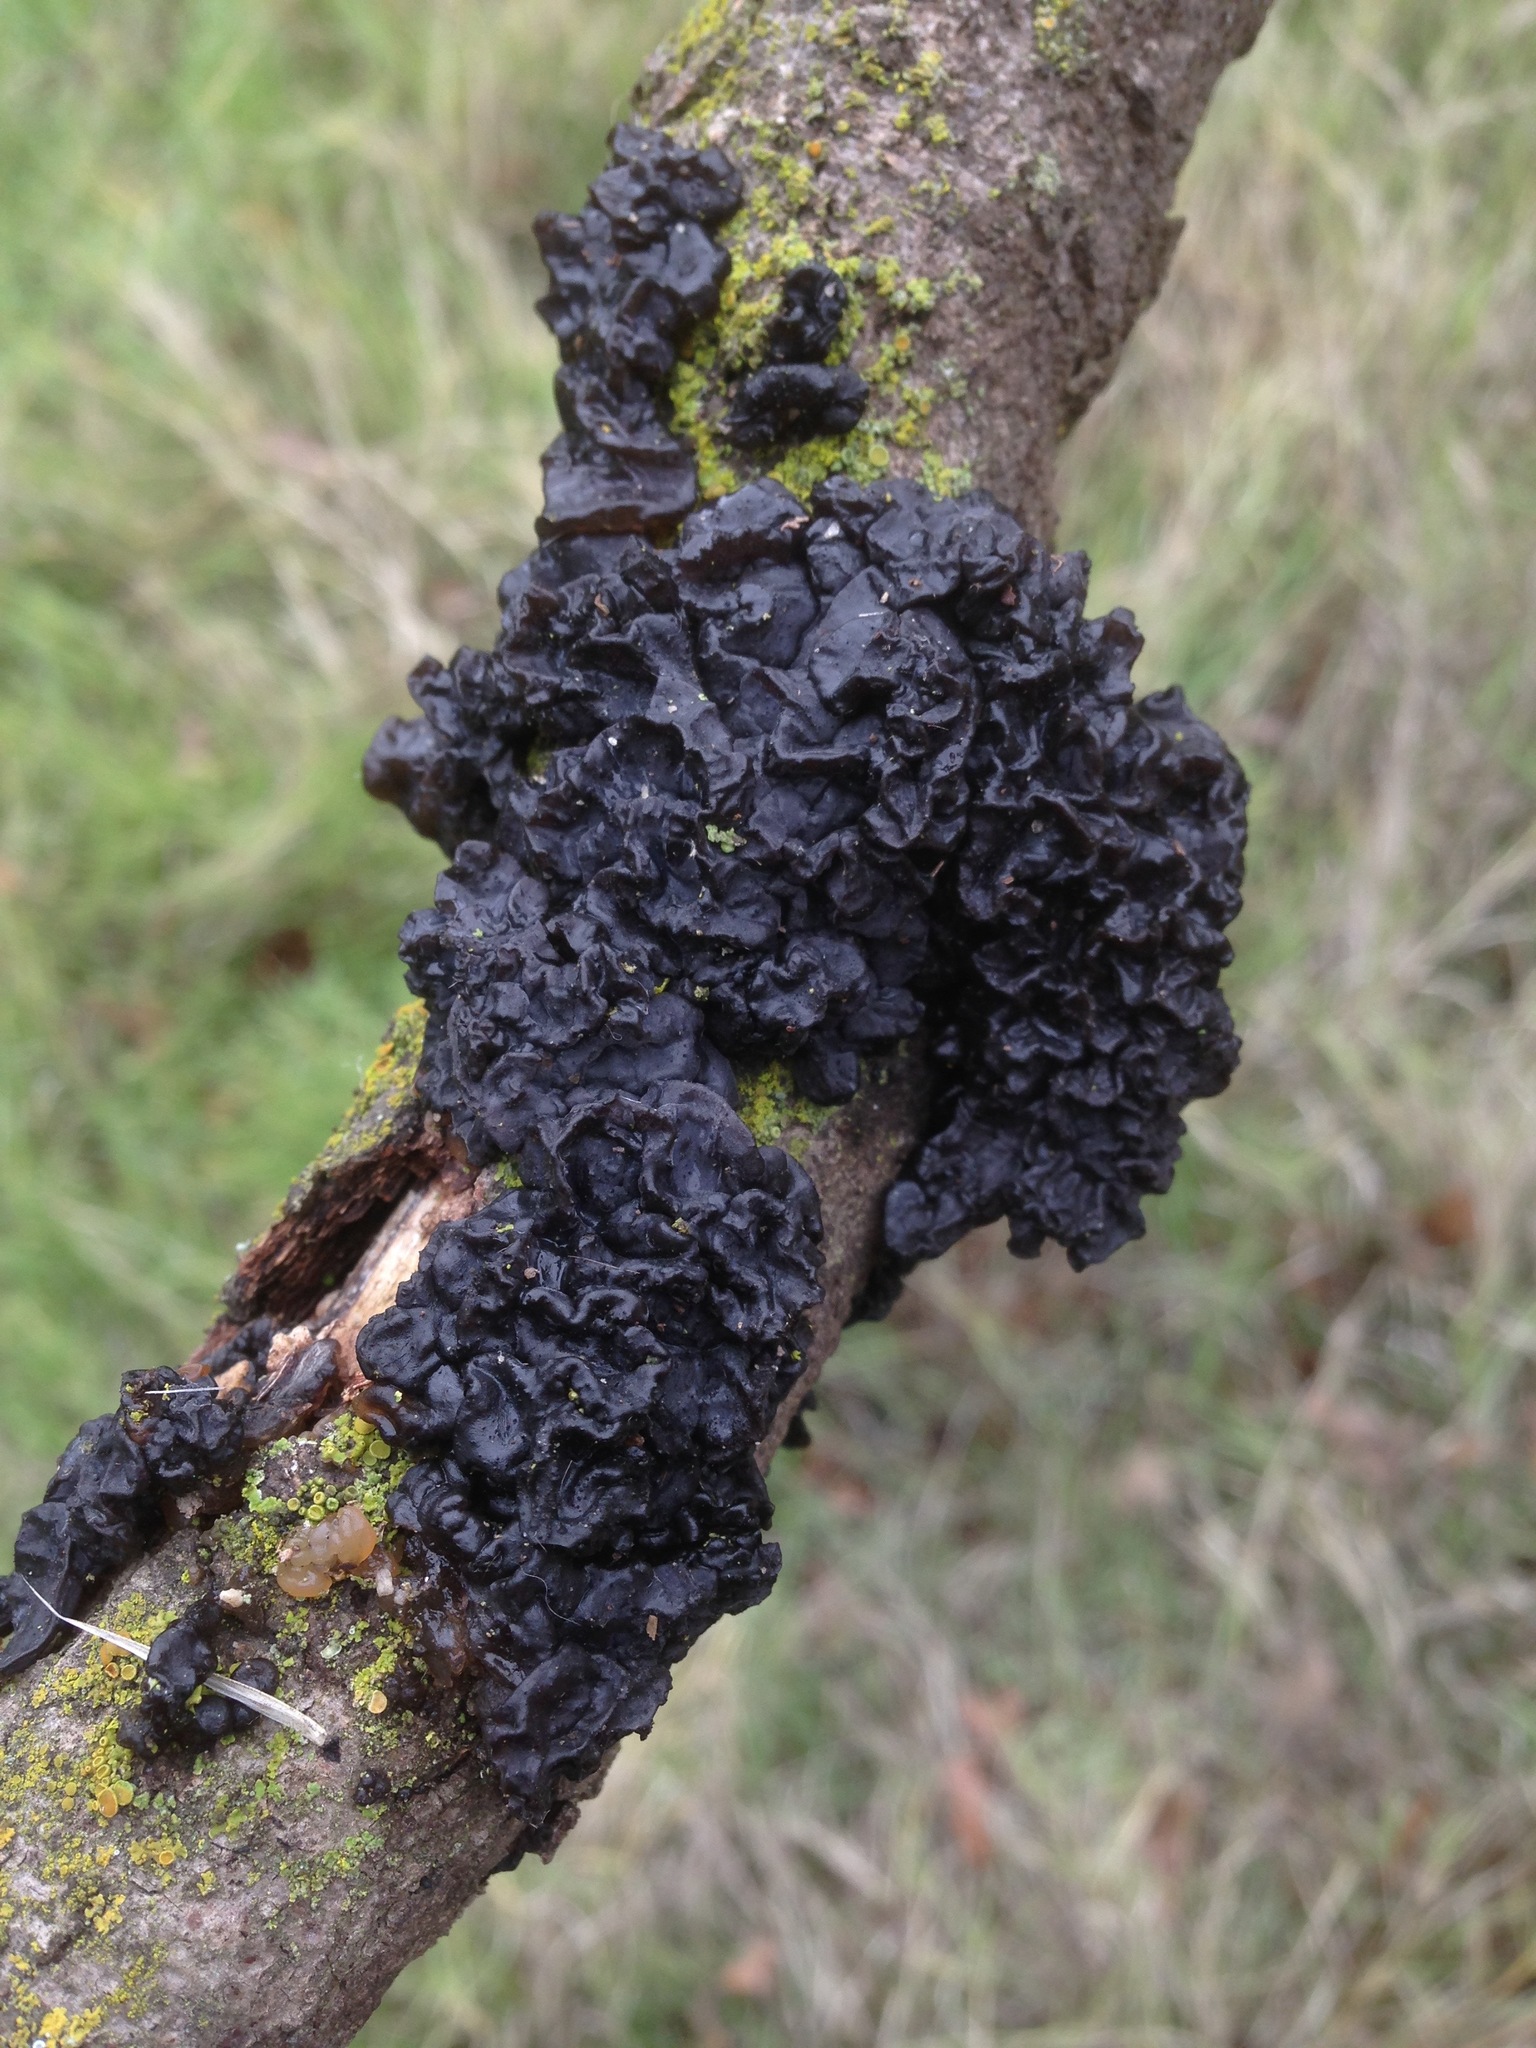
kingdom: Fungi
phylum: Basidiomycota
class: Agaricomycetes
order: Auriculariales
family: Auriculariaceae
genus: Exidia
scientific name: Exidia glandulosa
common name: Witches' butter
